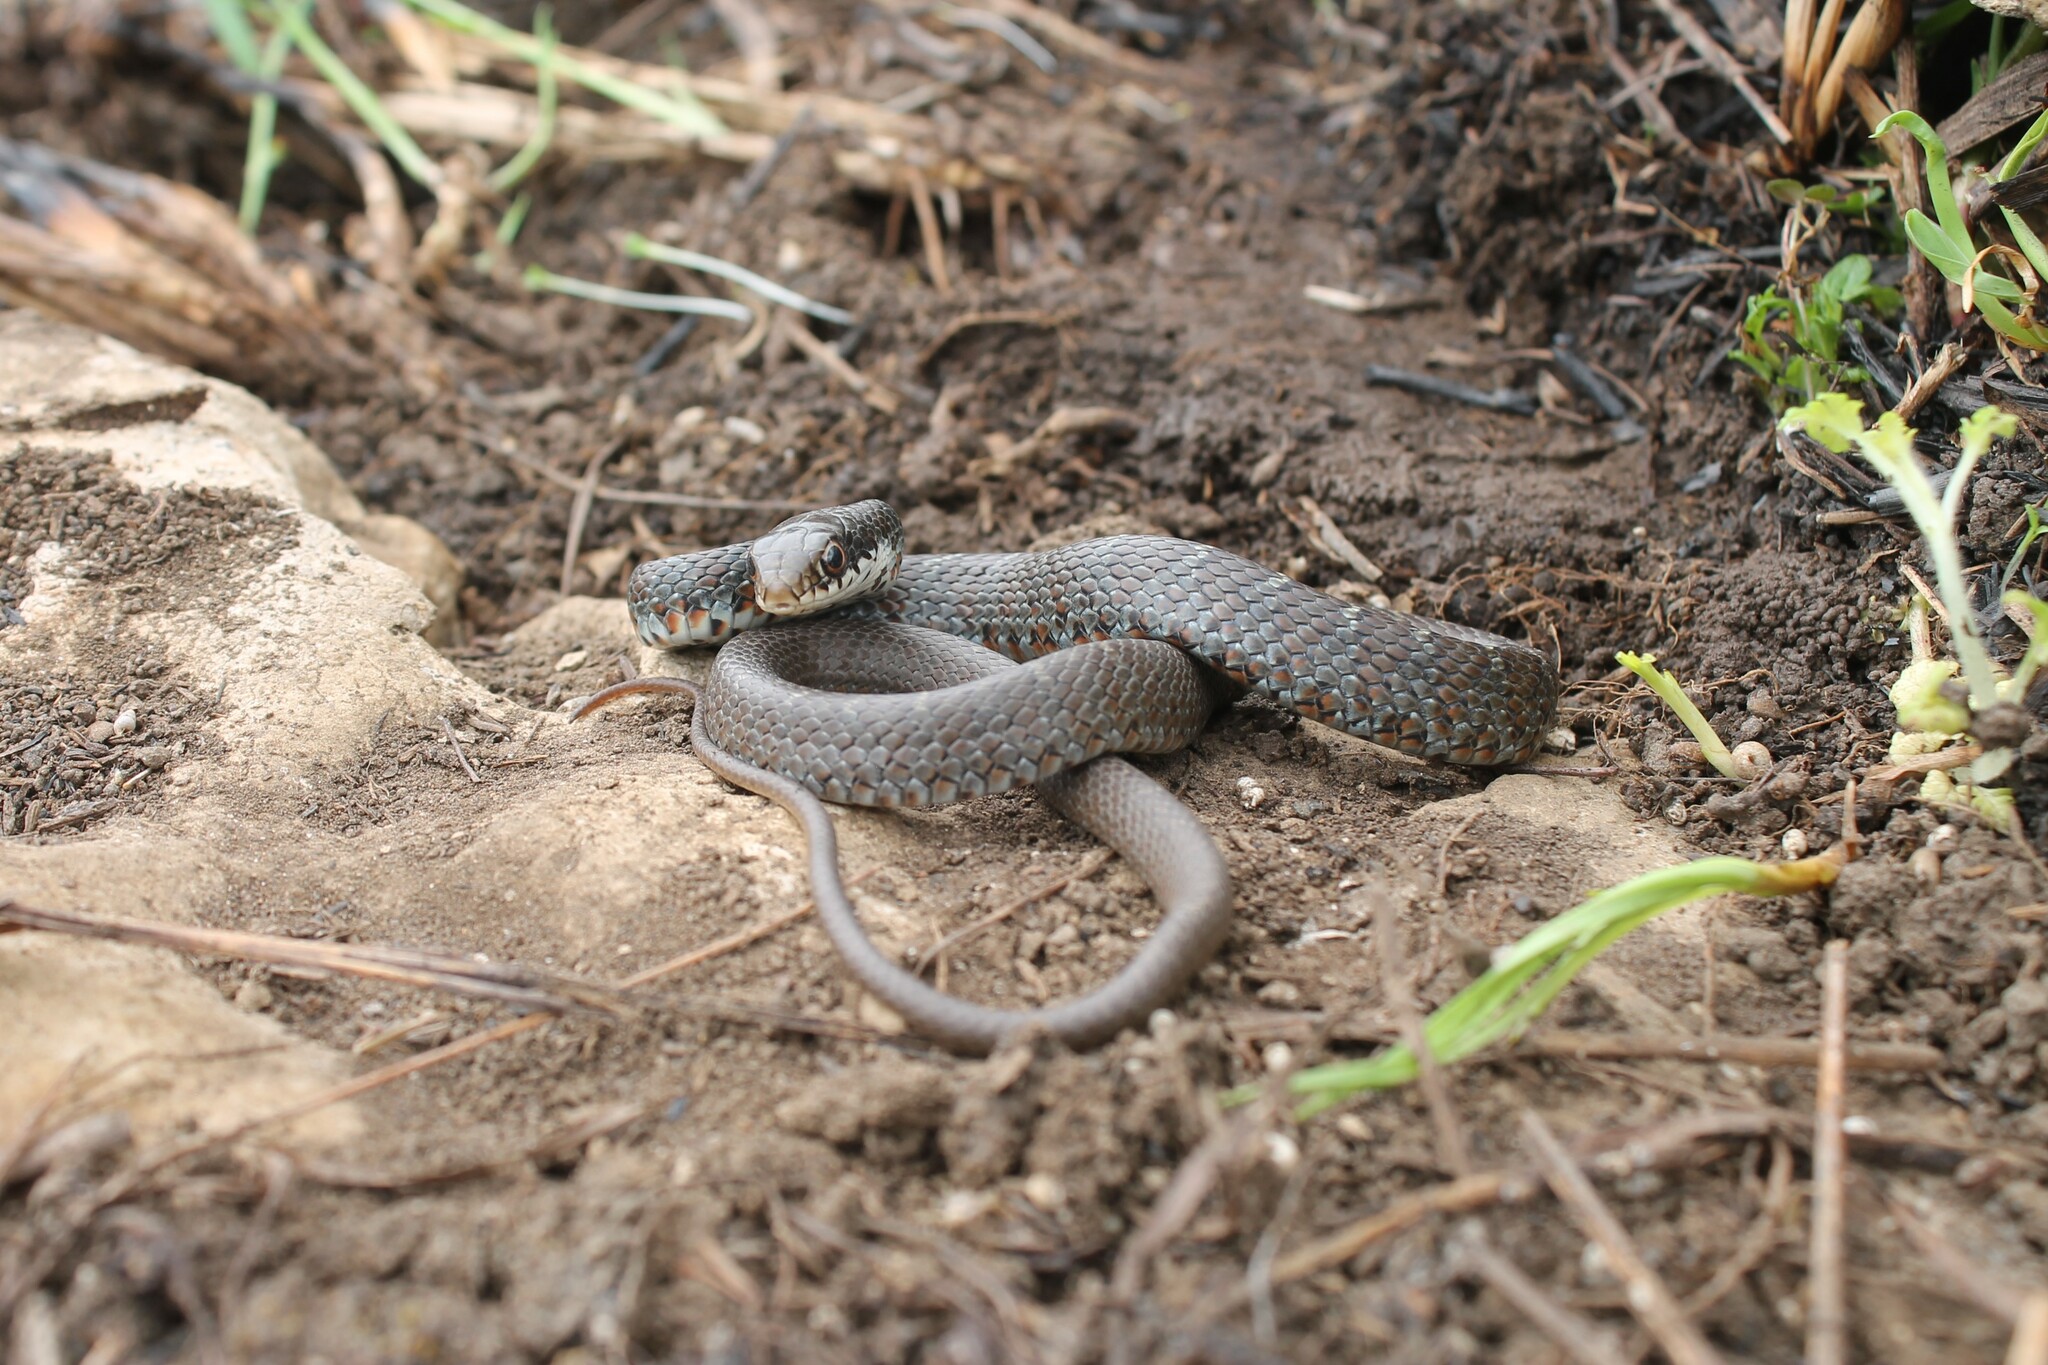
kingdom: Animalia
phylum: Chordata
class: Squamata
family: Colubridae
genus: Coluber
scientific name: Coluber constrictor
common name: Eastern racer
